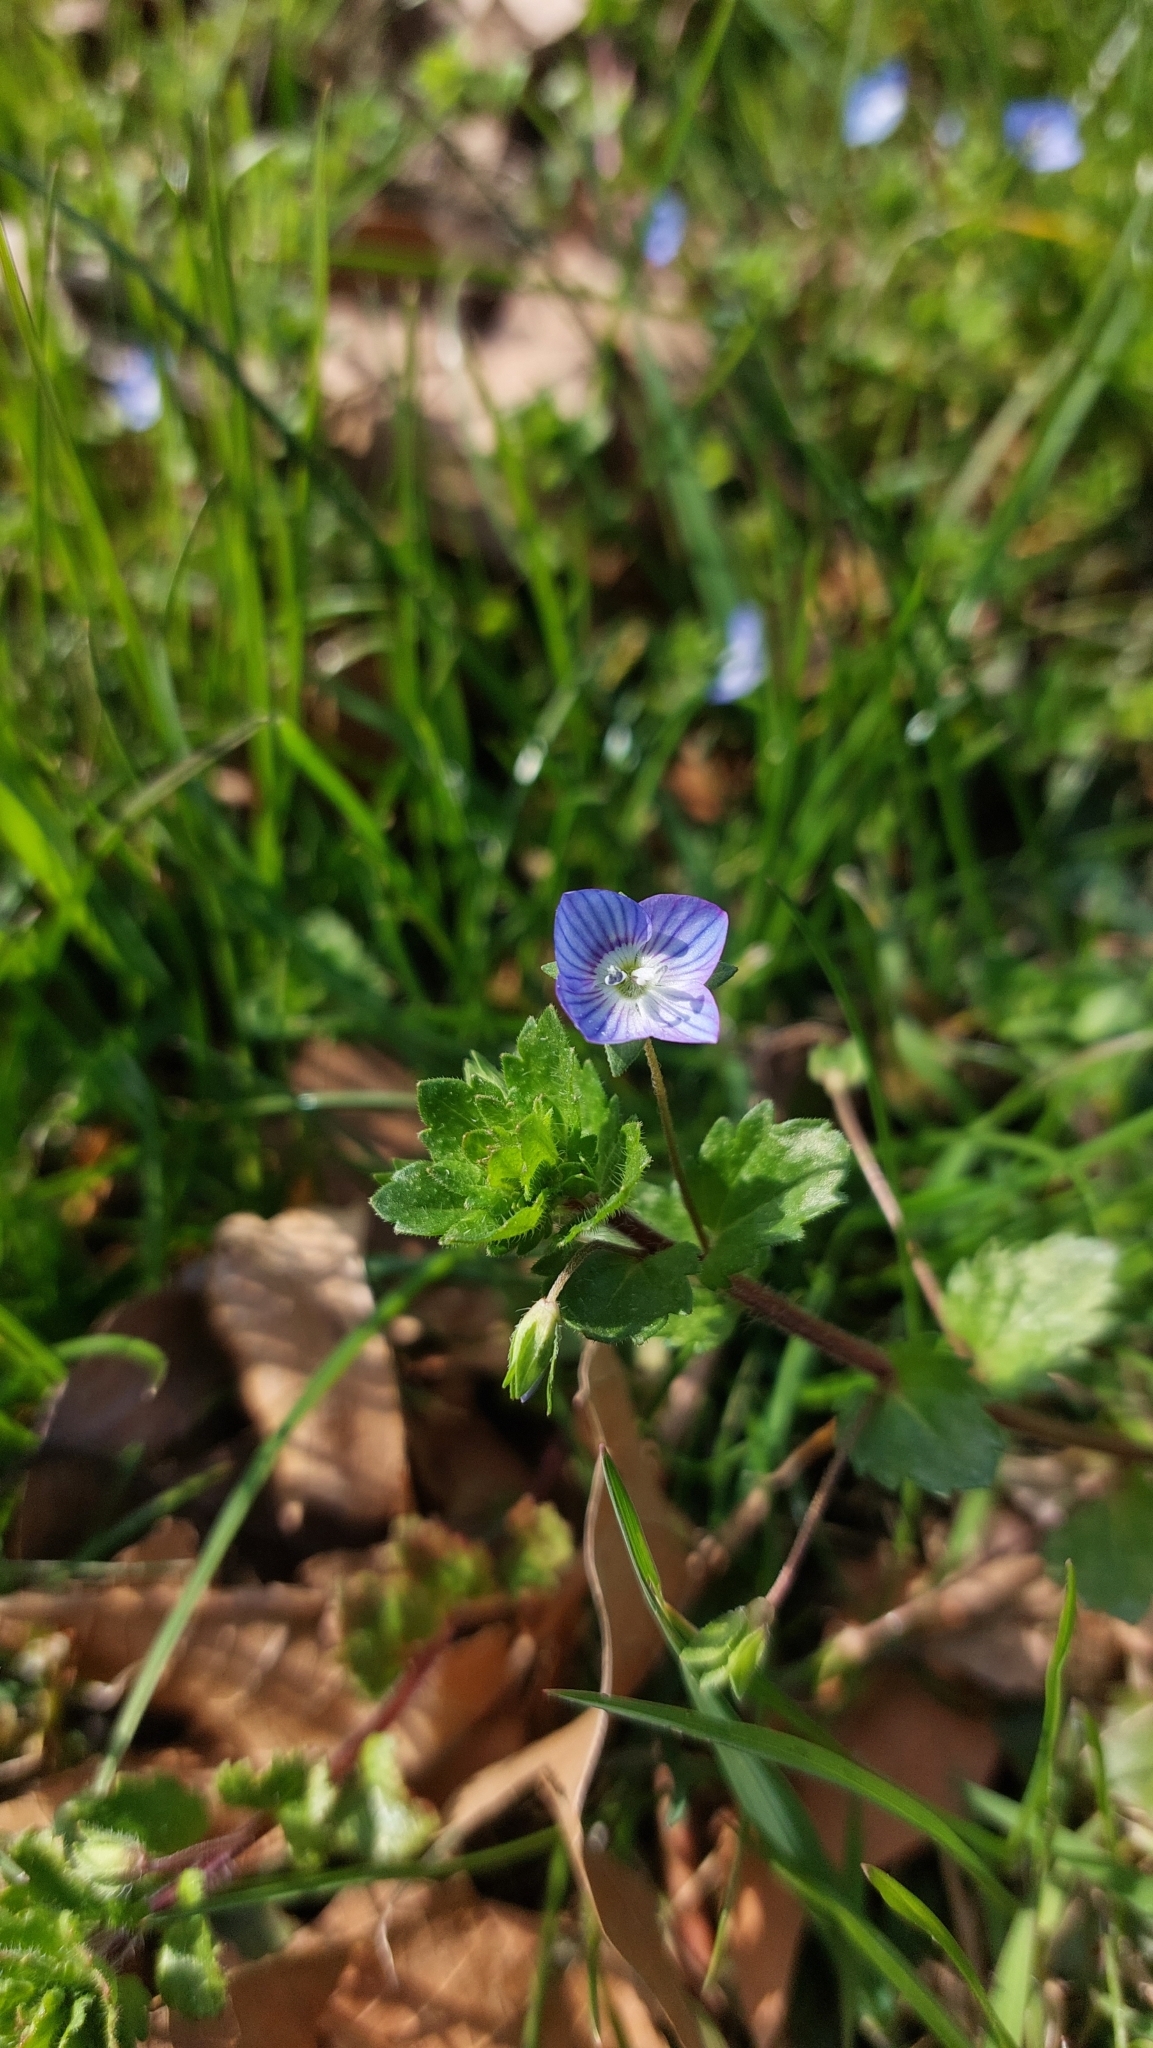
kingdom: Plantae
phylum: Tracheophyta
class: Magnoliopsida
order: Lamiales
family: Plantaginaceae
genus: Veronica
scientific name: Veronica persica
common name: Common field-speedwell
